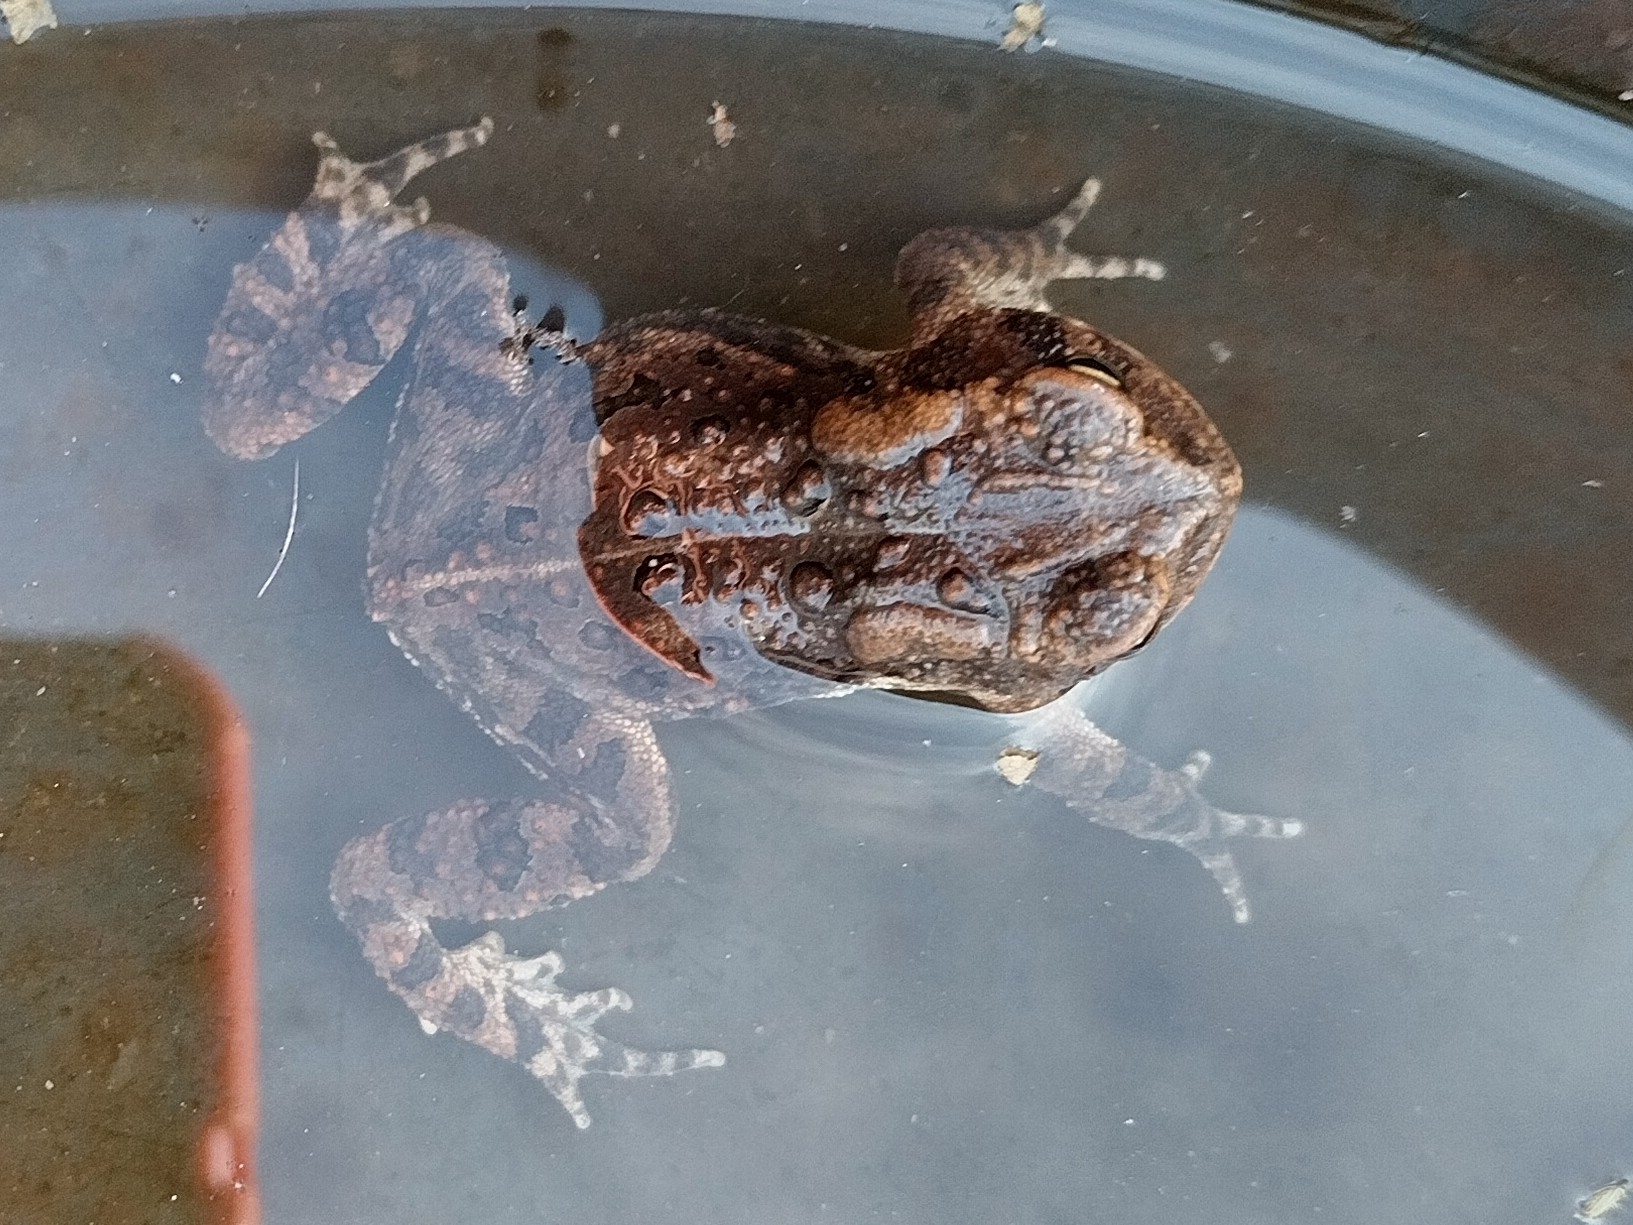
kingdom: Animalia
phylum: Chordata
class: Amphibia
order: Anura
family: Bufonidae
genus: Anaxyrus
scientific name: Anaxyrus americanus
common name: American toad
